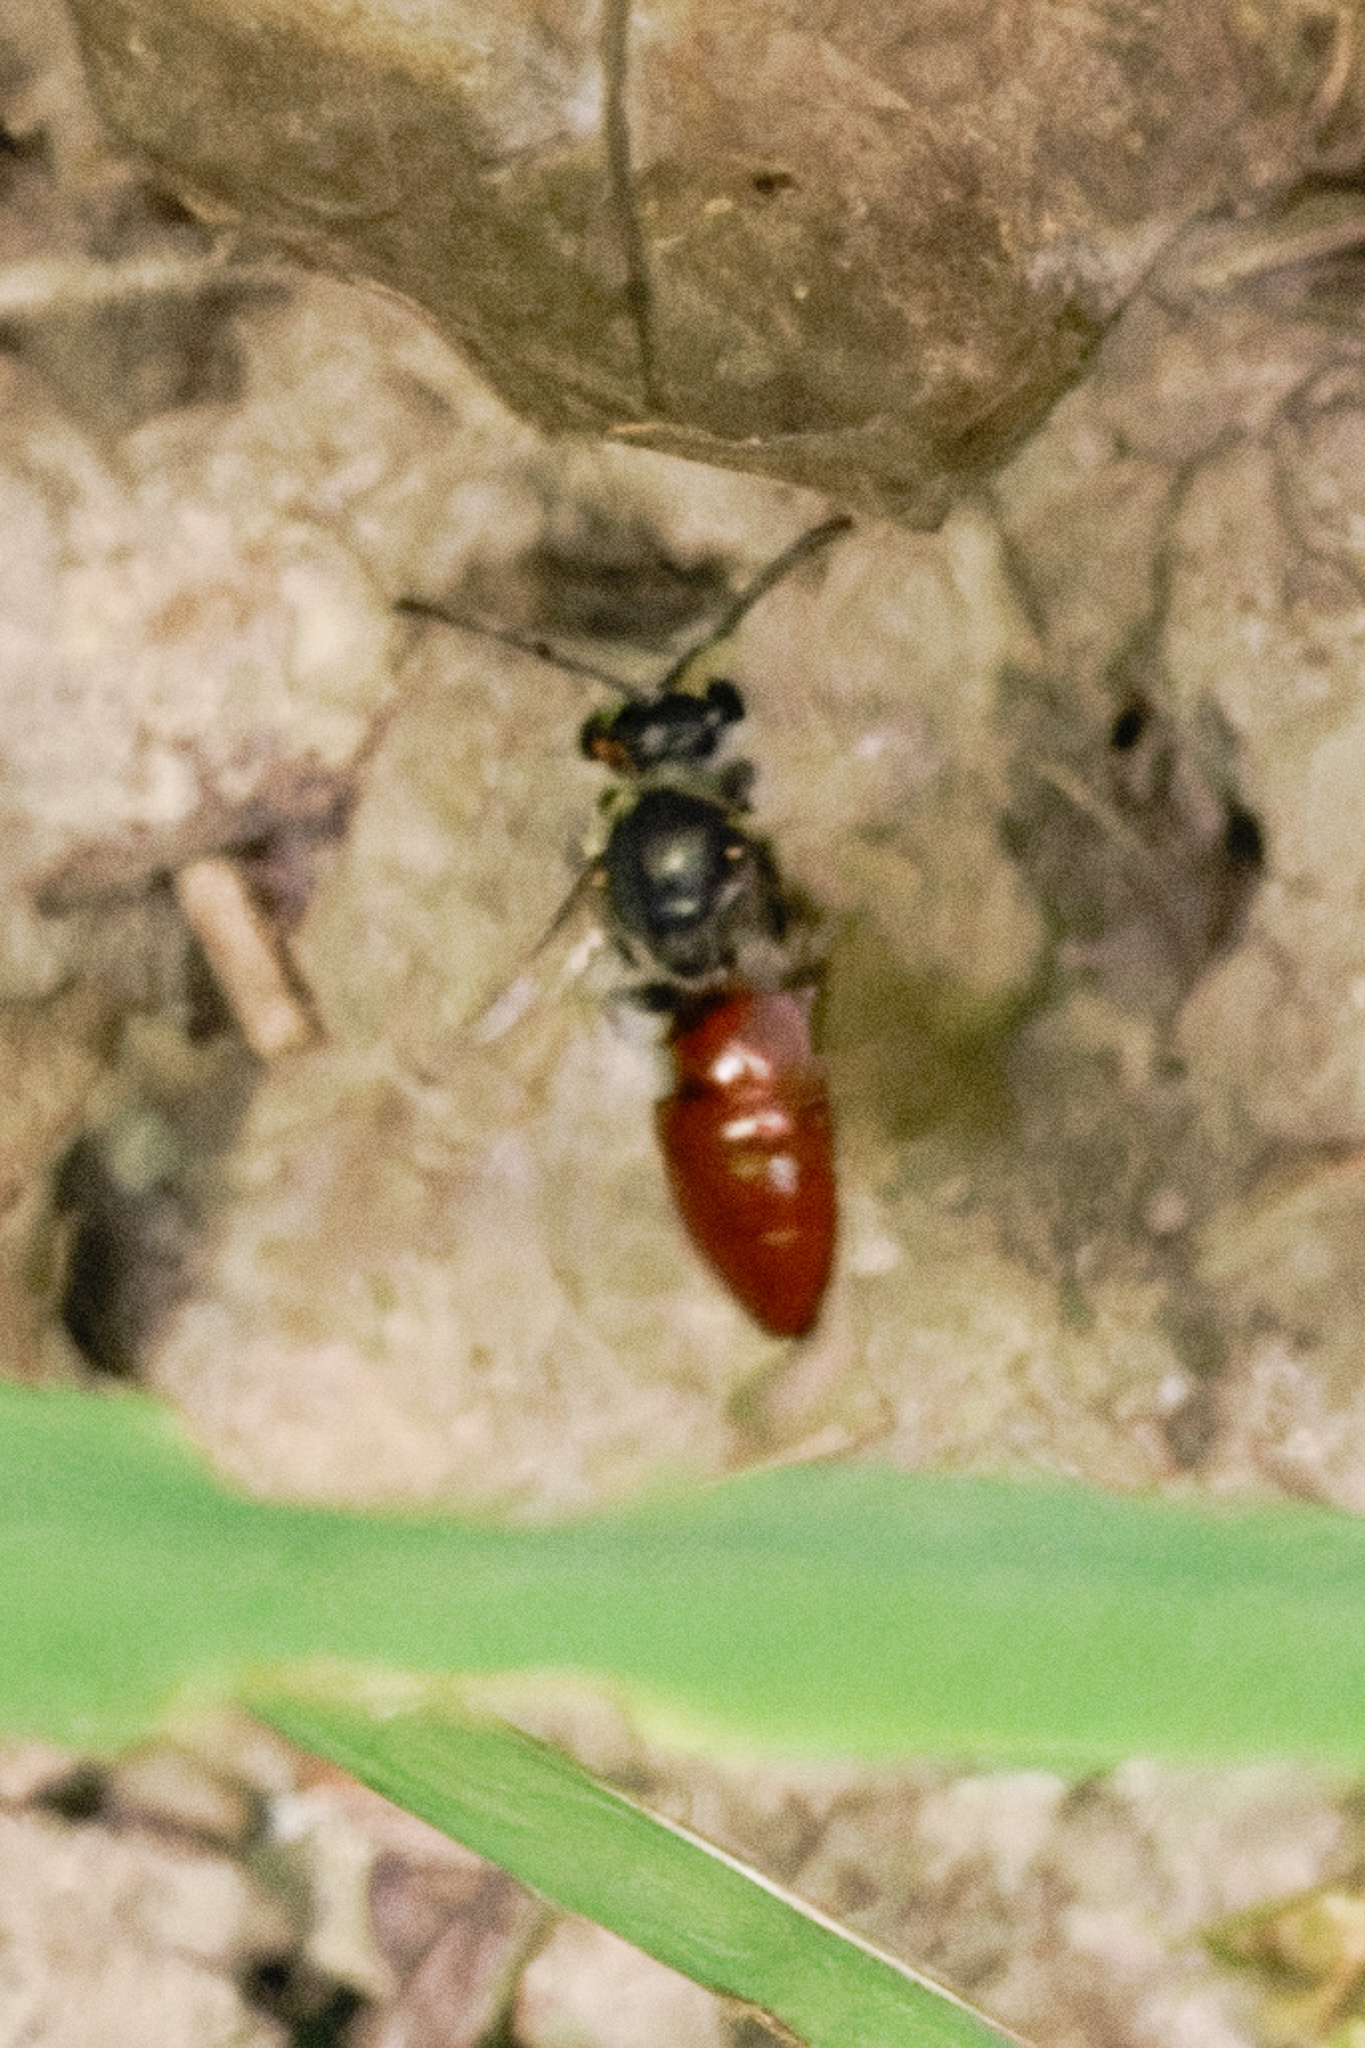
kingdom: Animalia
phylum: Arthropoda
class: Insecta
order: Hymenoptera
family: Halictidae
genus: Sphecodes
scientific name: Sphecodes
